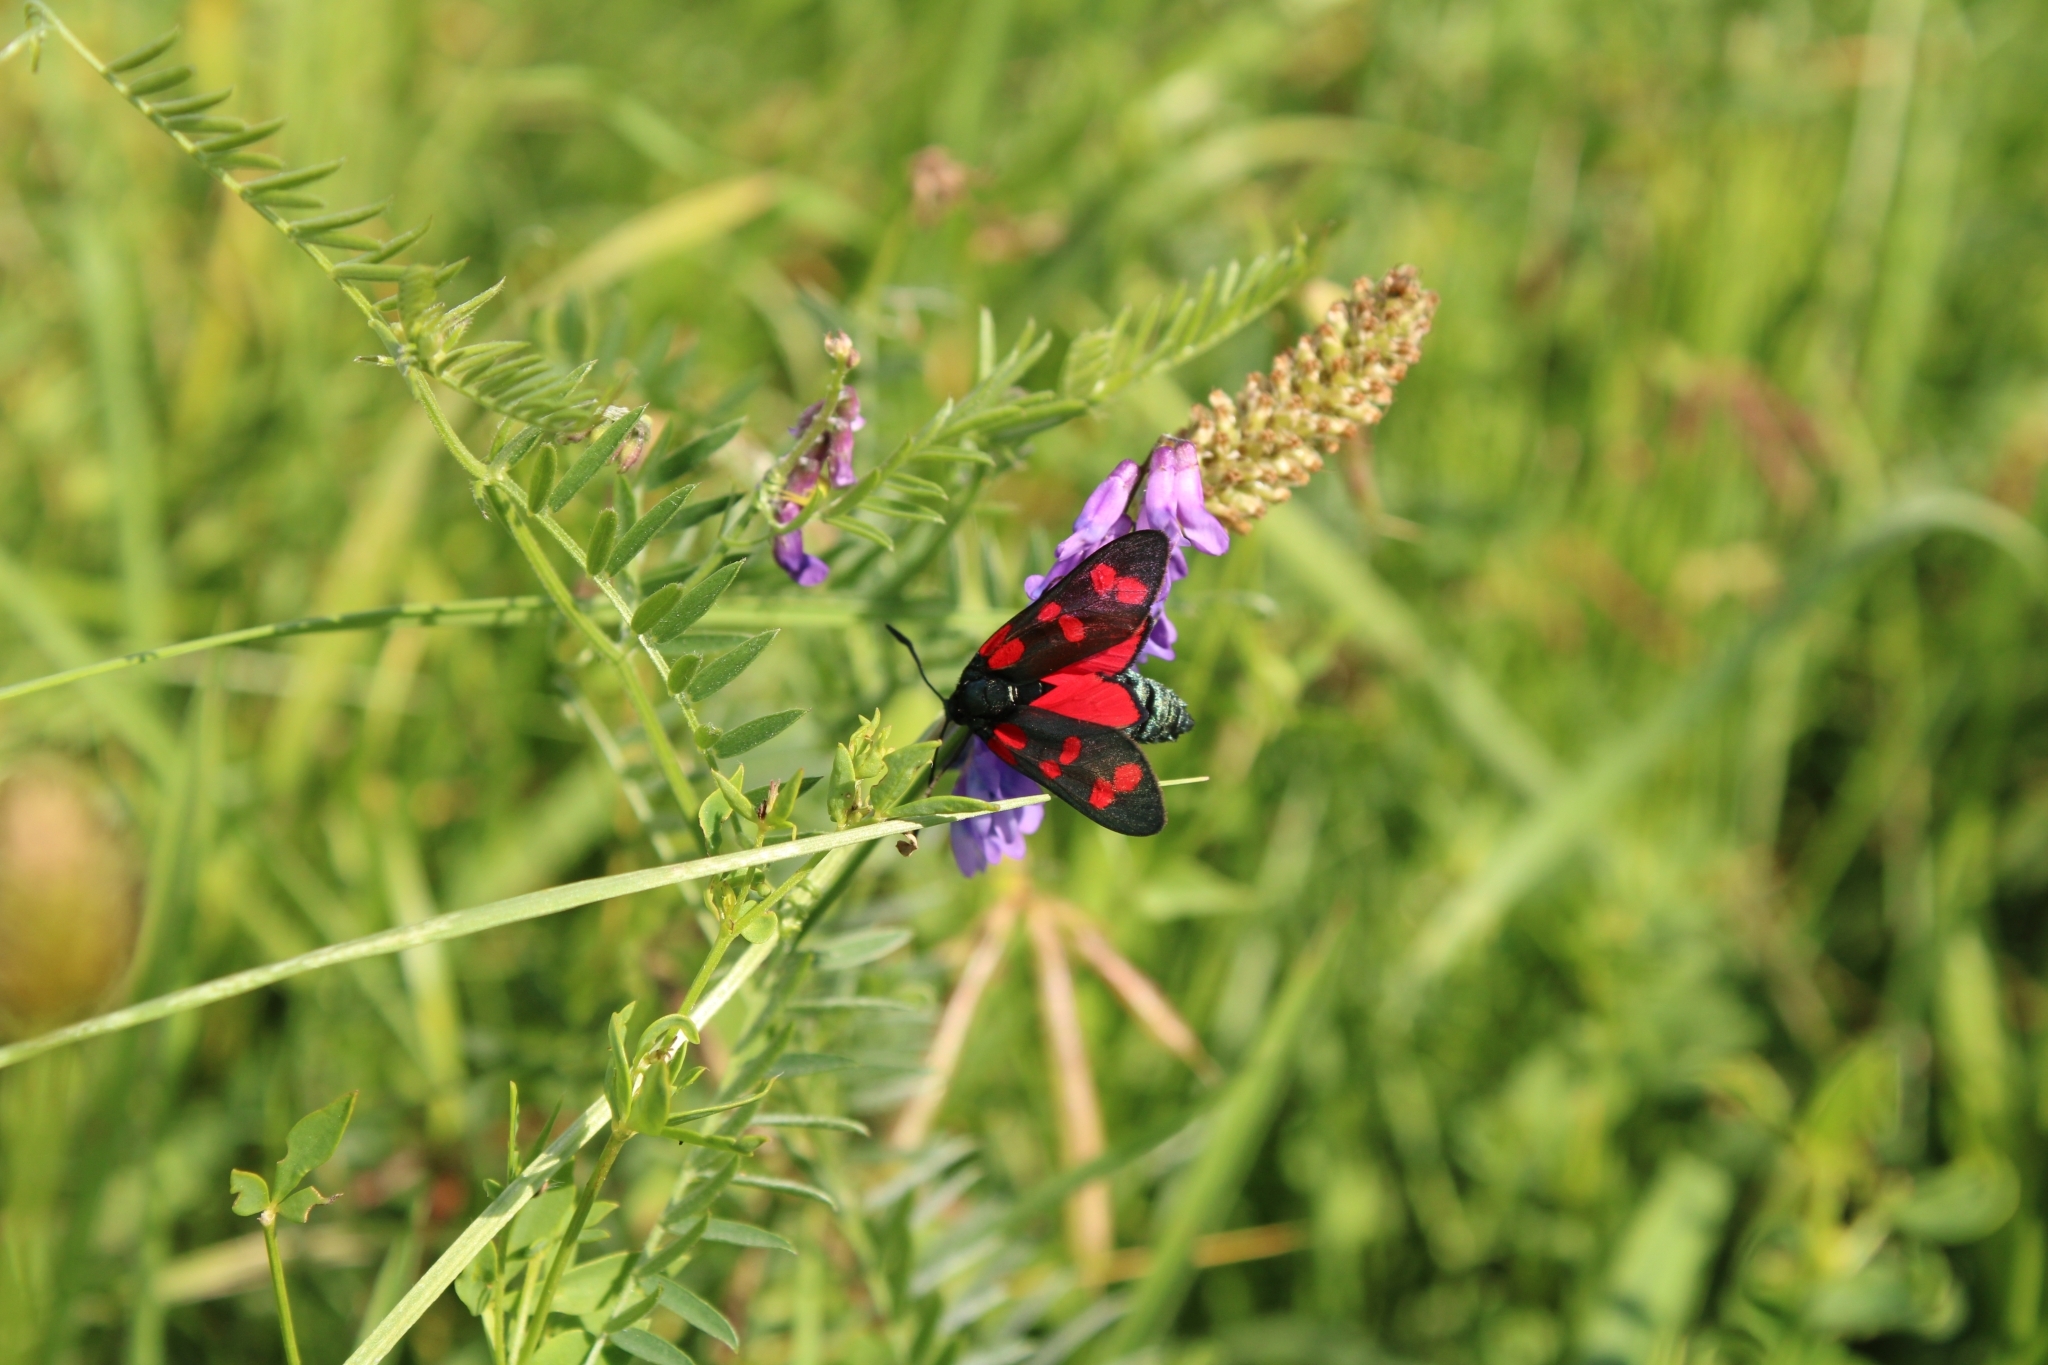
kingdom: Animalia
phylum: Arthropoda
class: Insecta
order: Lepidoptera
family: Zygaenidae
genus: Zygaena
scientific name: Zygaena filipendulae
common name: Six-spot burnet
